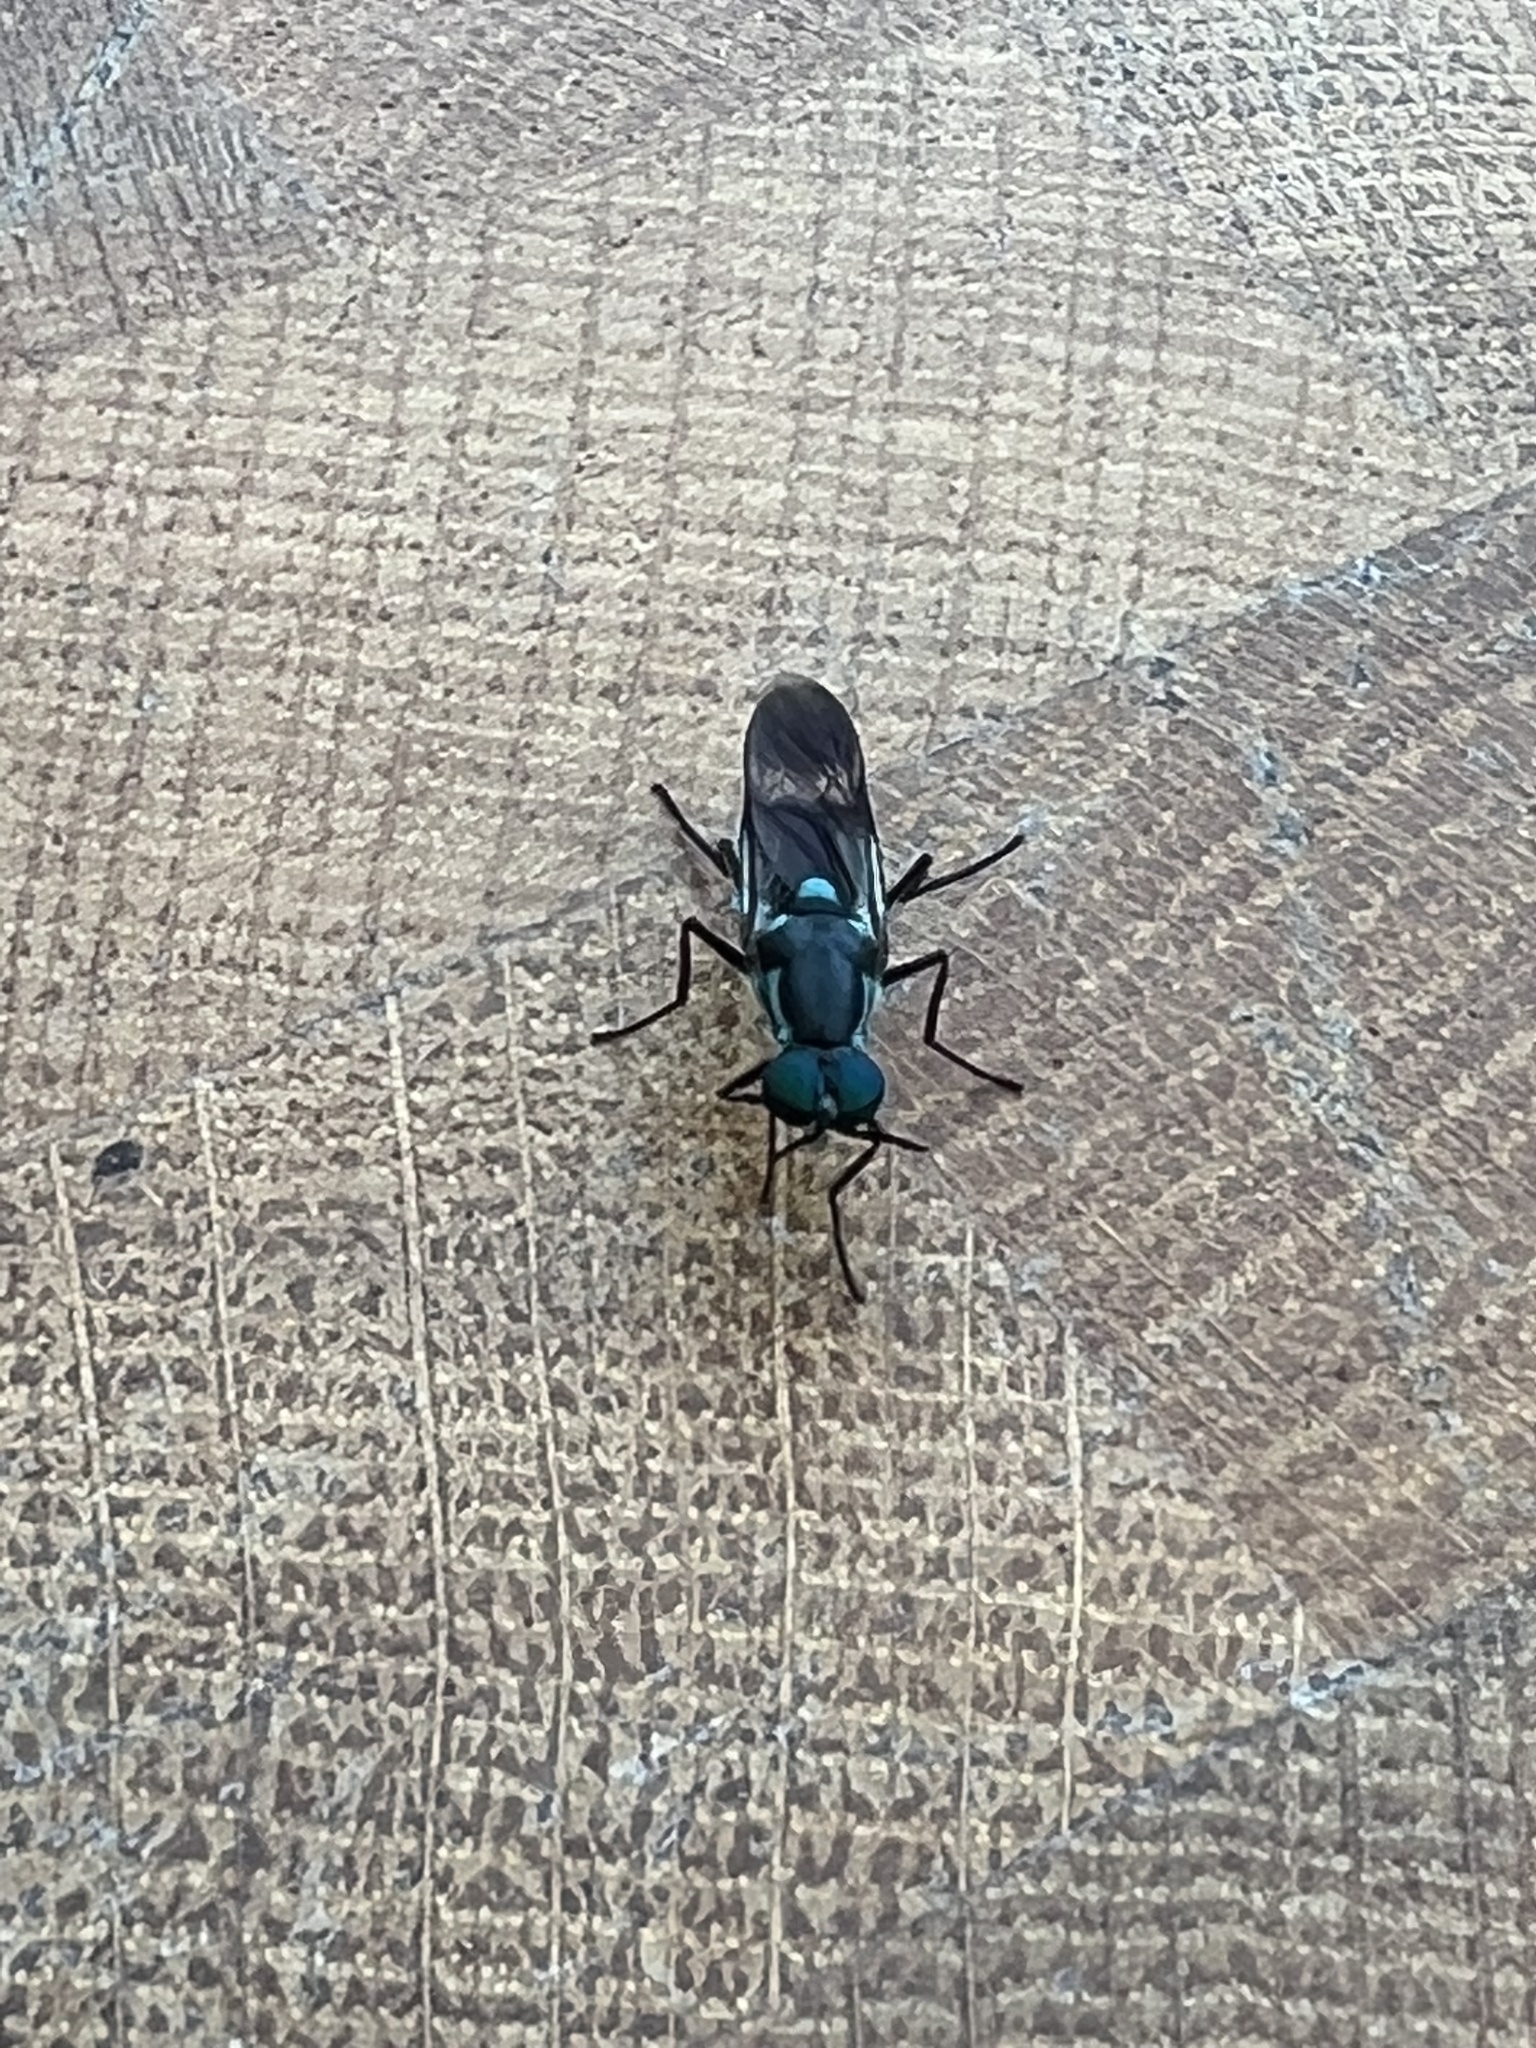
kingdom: Animalia
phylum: Arthropoda
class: Insecta
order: Diptera
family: Stratiomyidae
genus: Eudmeta
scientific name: Eudmeta marginata
